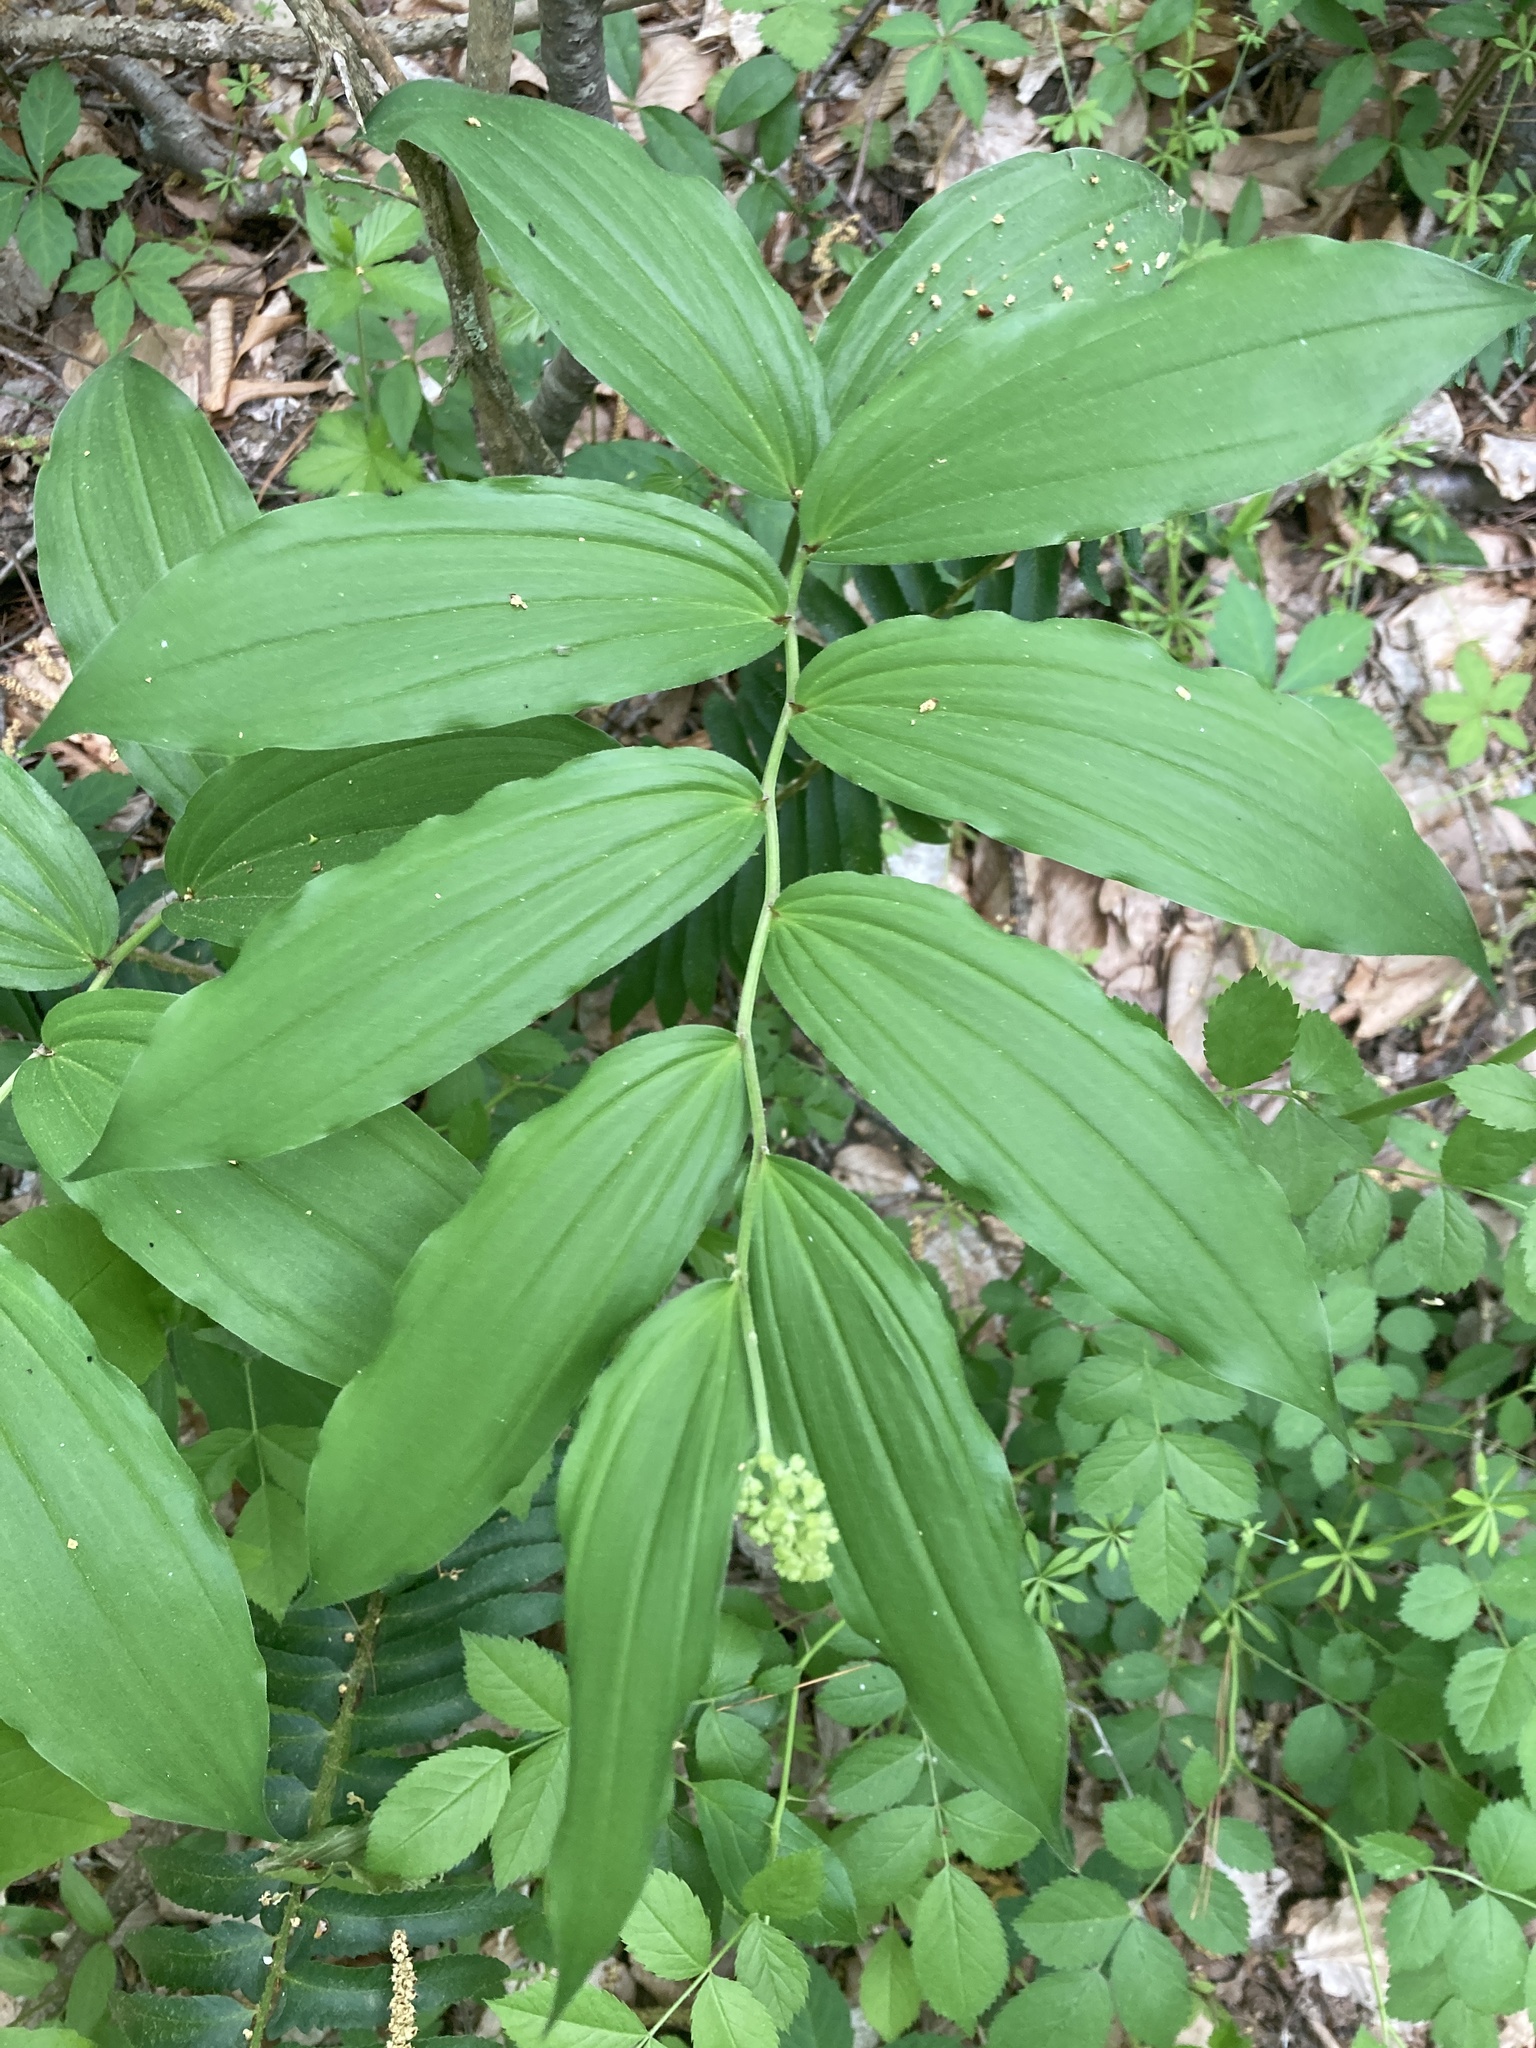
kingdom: Plantae
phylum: Tracheophyta
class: Liliopsida
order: Asparagales
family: Asparagaceae
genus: Maianthemum
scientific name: Maianthemum racemosum
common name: False spikenard
